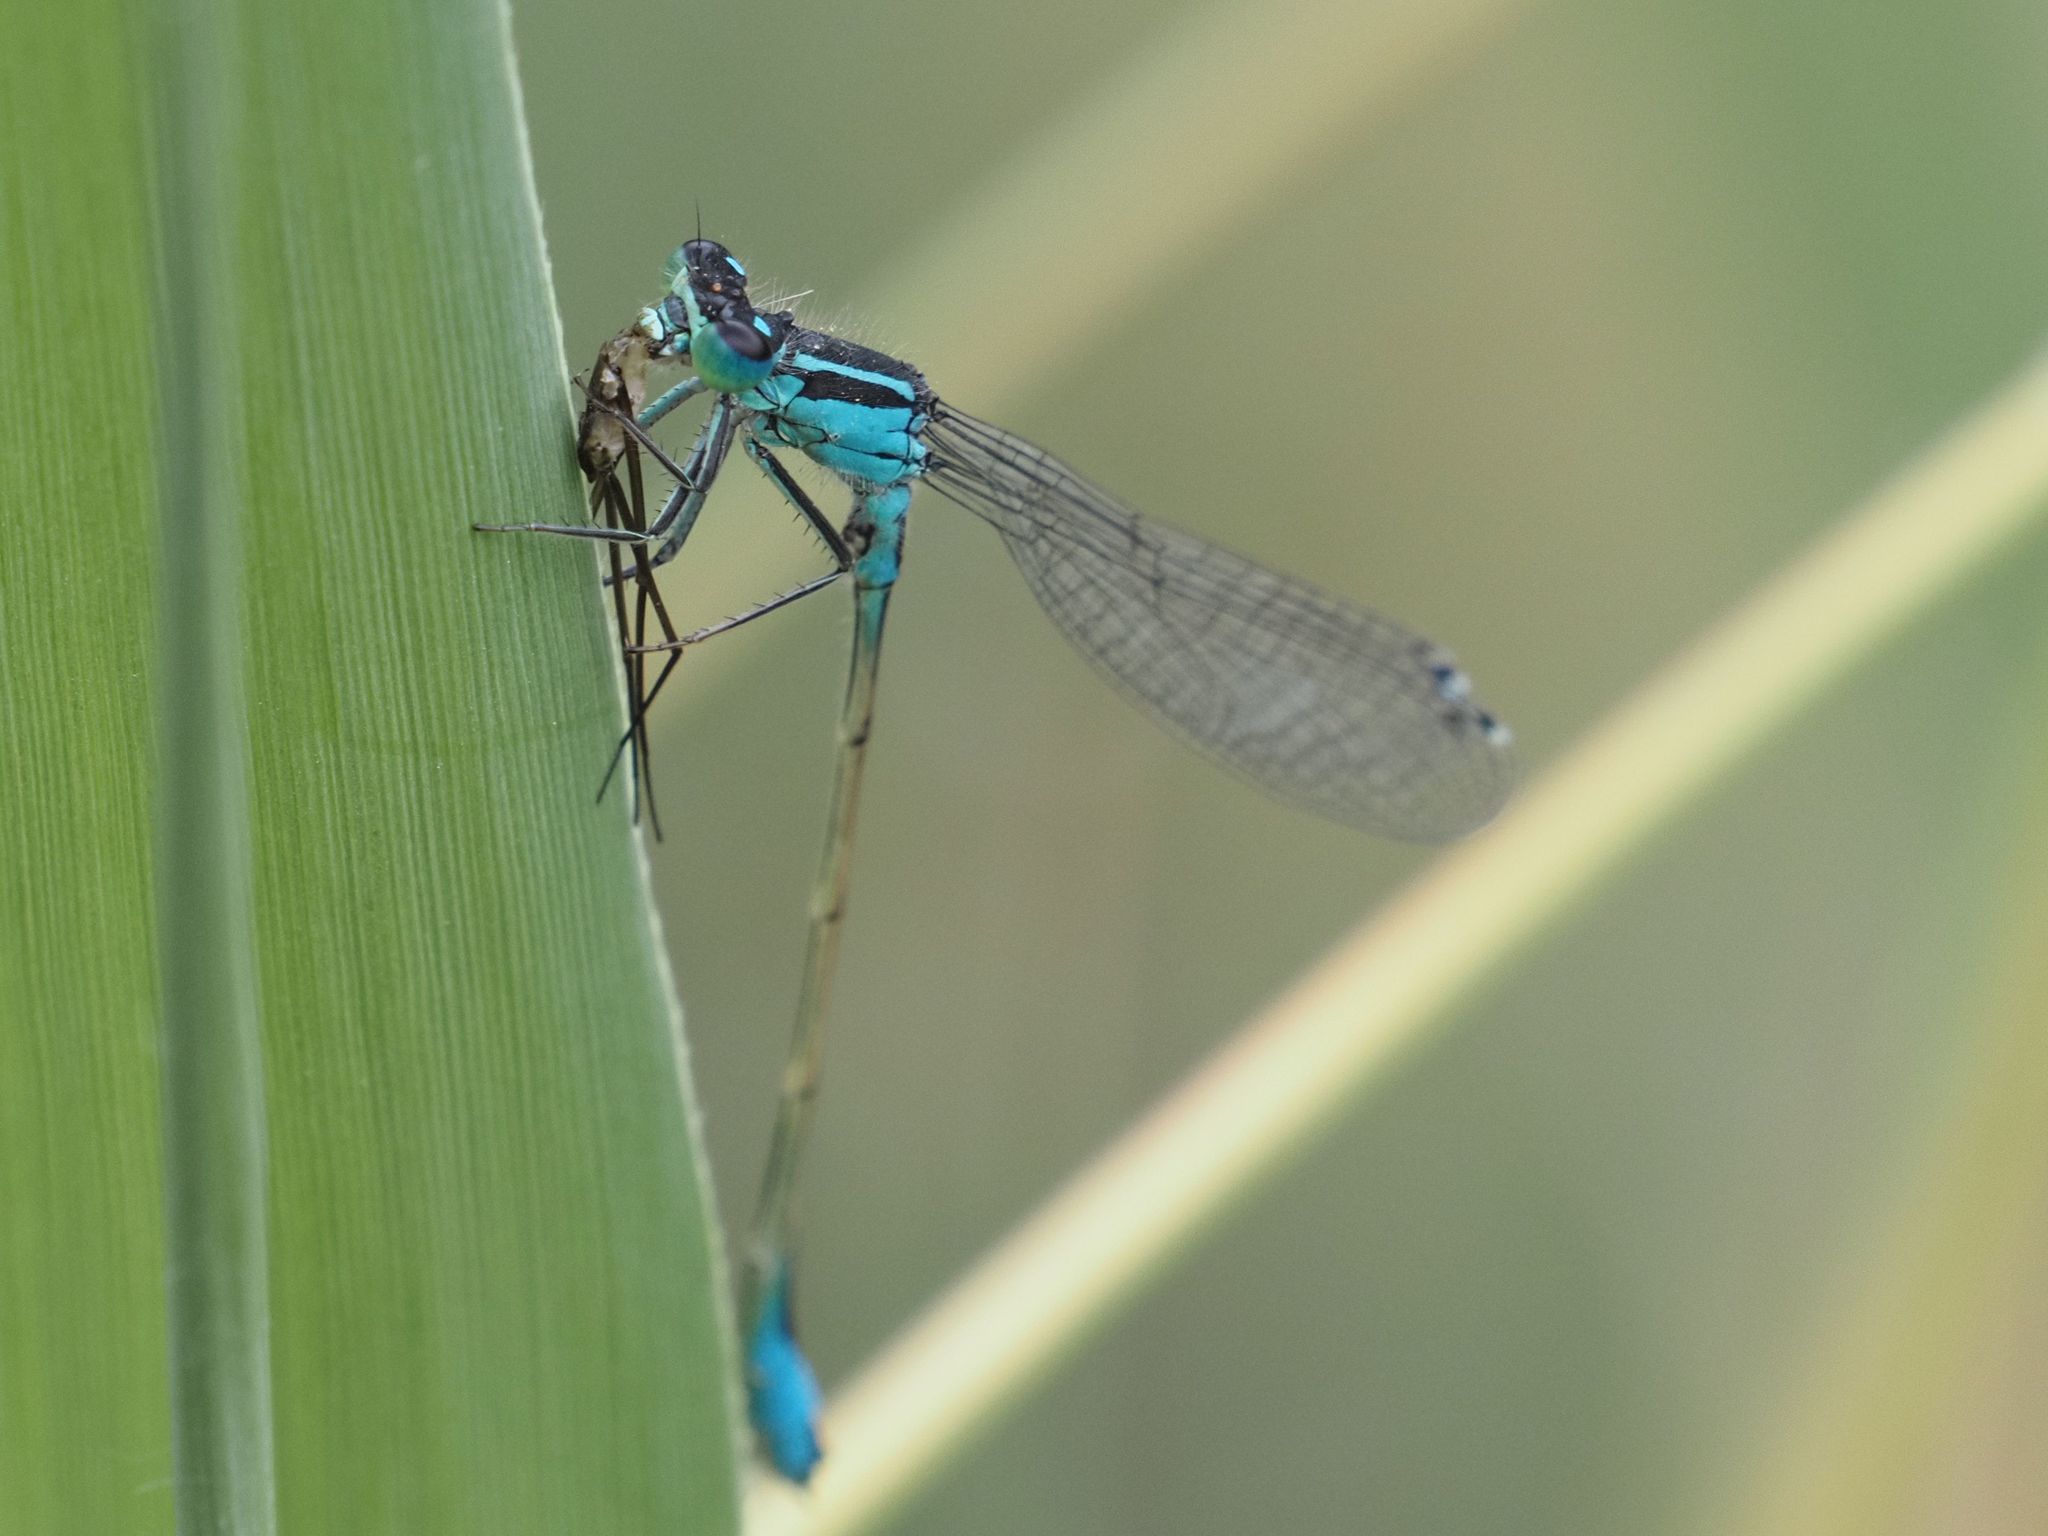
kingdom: Animalia
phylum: Arthropoda
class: Insecta
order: Odonata
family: Coenagrionidae
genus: Ischnura
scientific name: Ischnura elegans
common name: Blue-tailed damselfly
